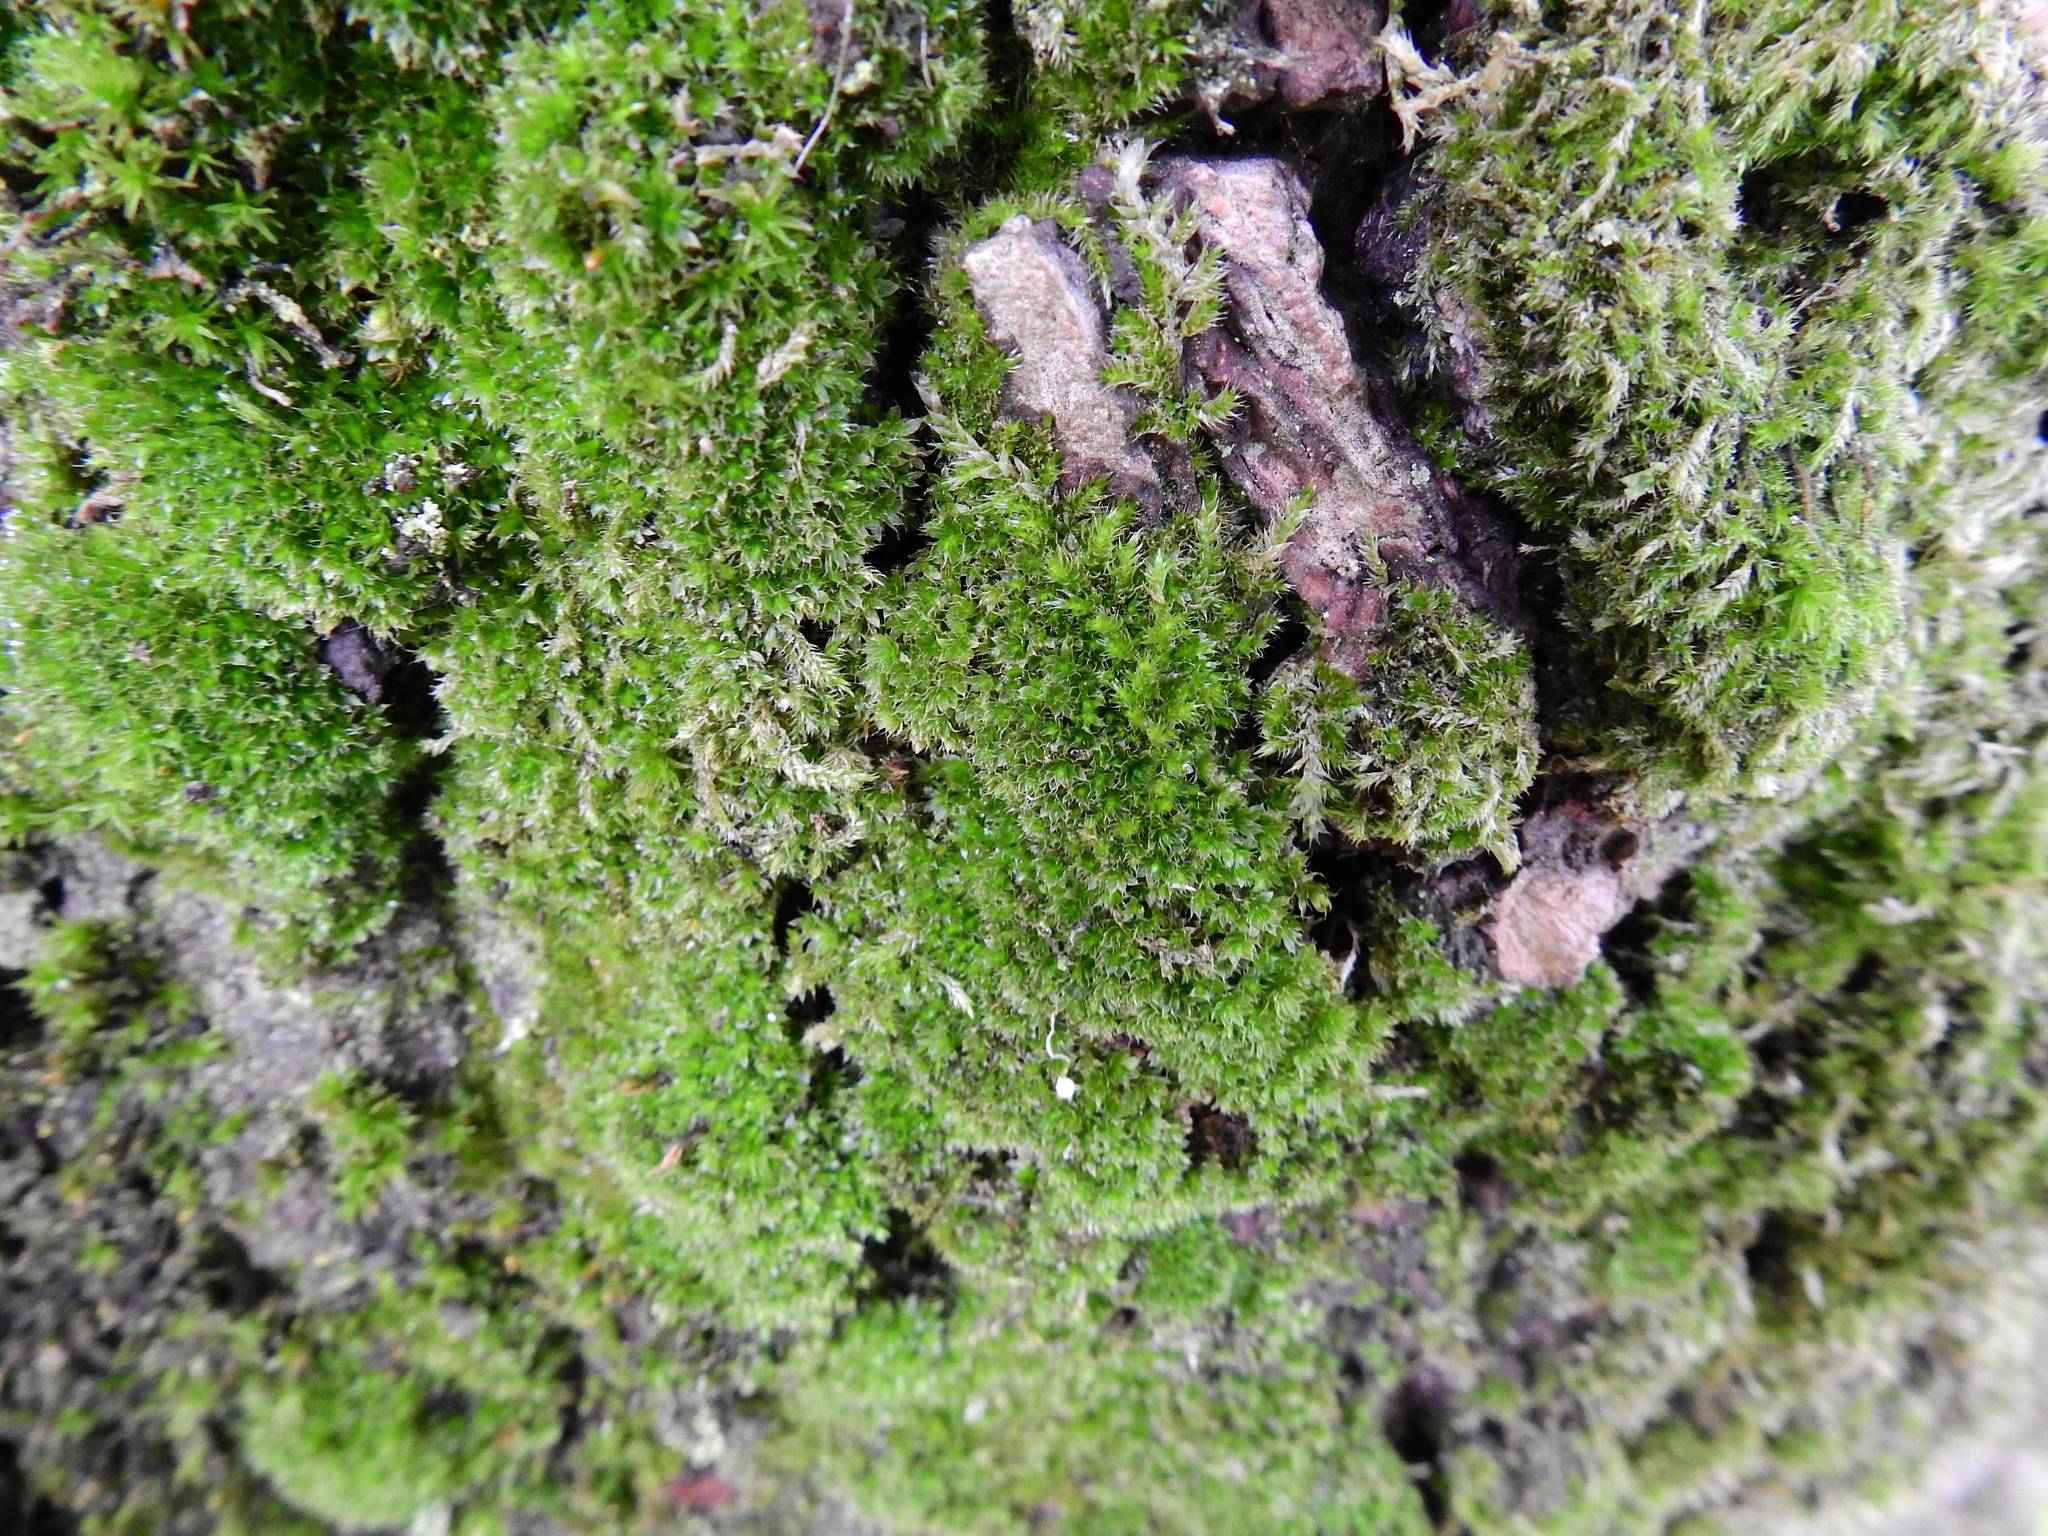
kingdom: Plantae
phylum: Bryophyta
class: Bryopsida
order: Bryales
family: Bryaceae
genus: Rosulabryum
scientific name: Rosulabryum capillare
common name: Capillary thread-moss
